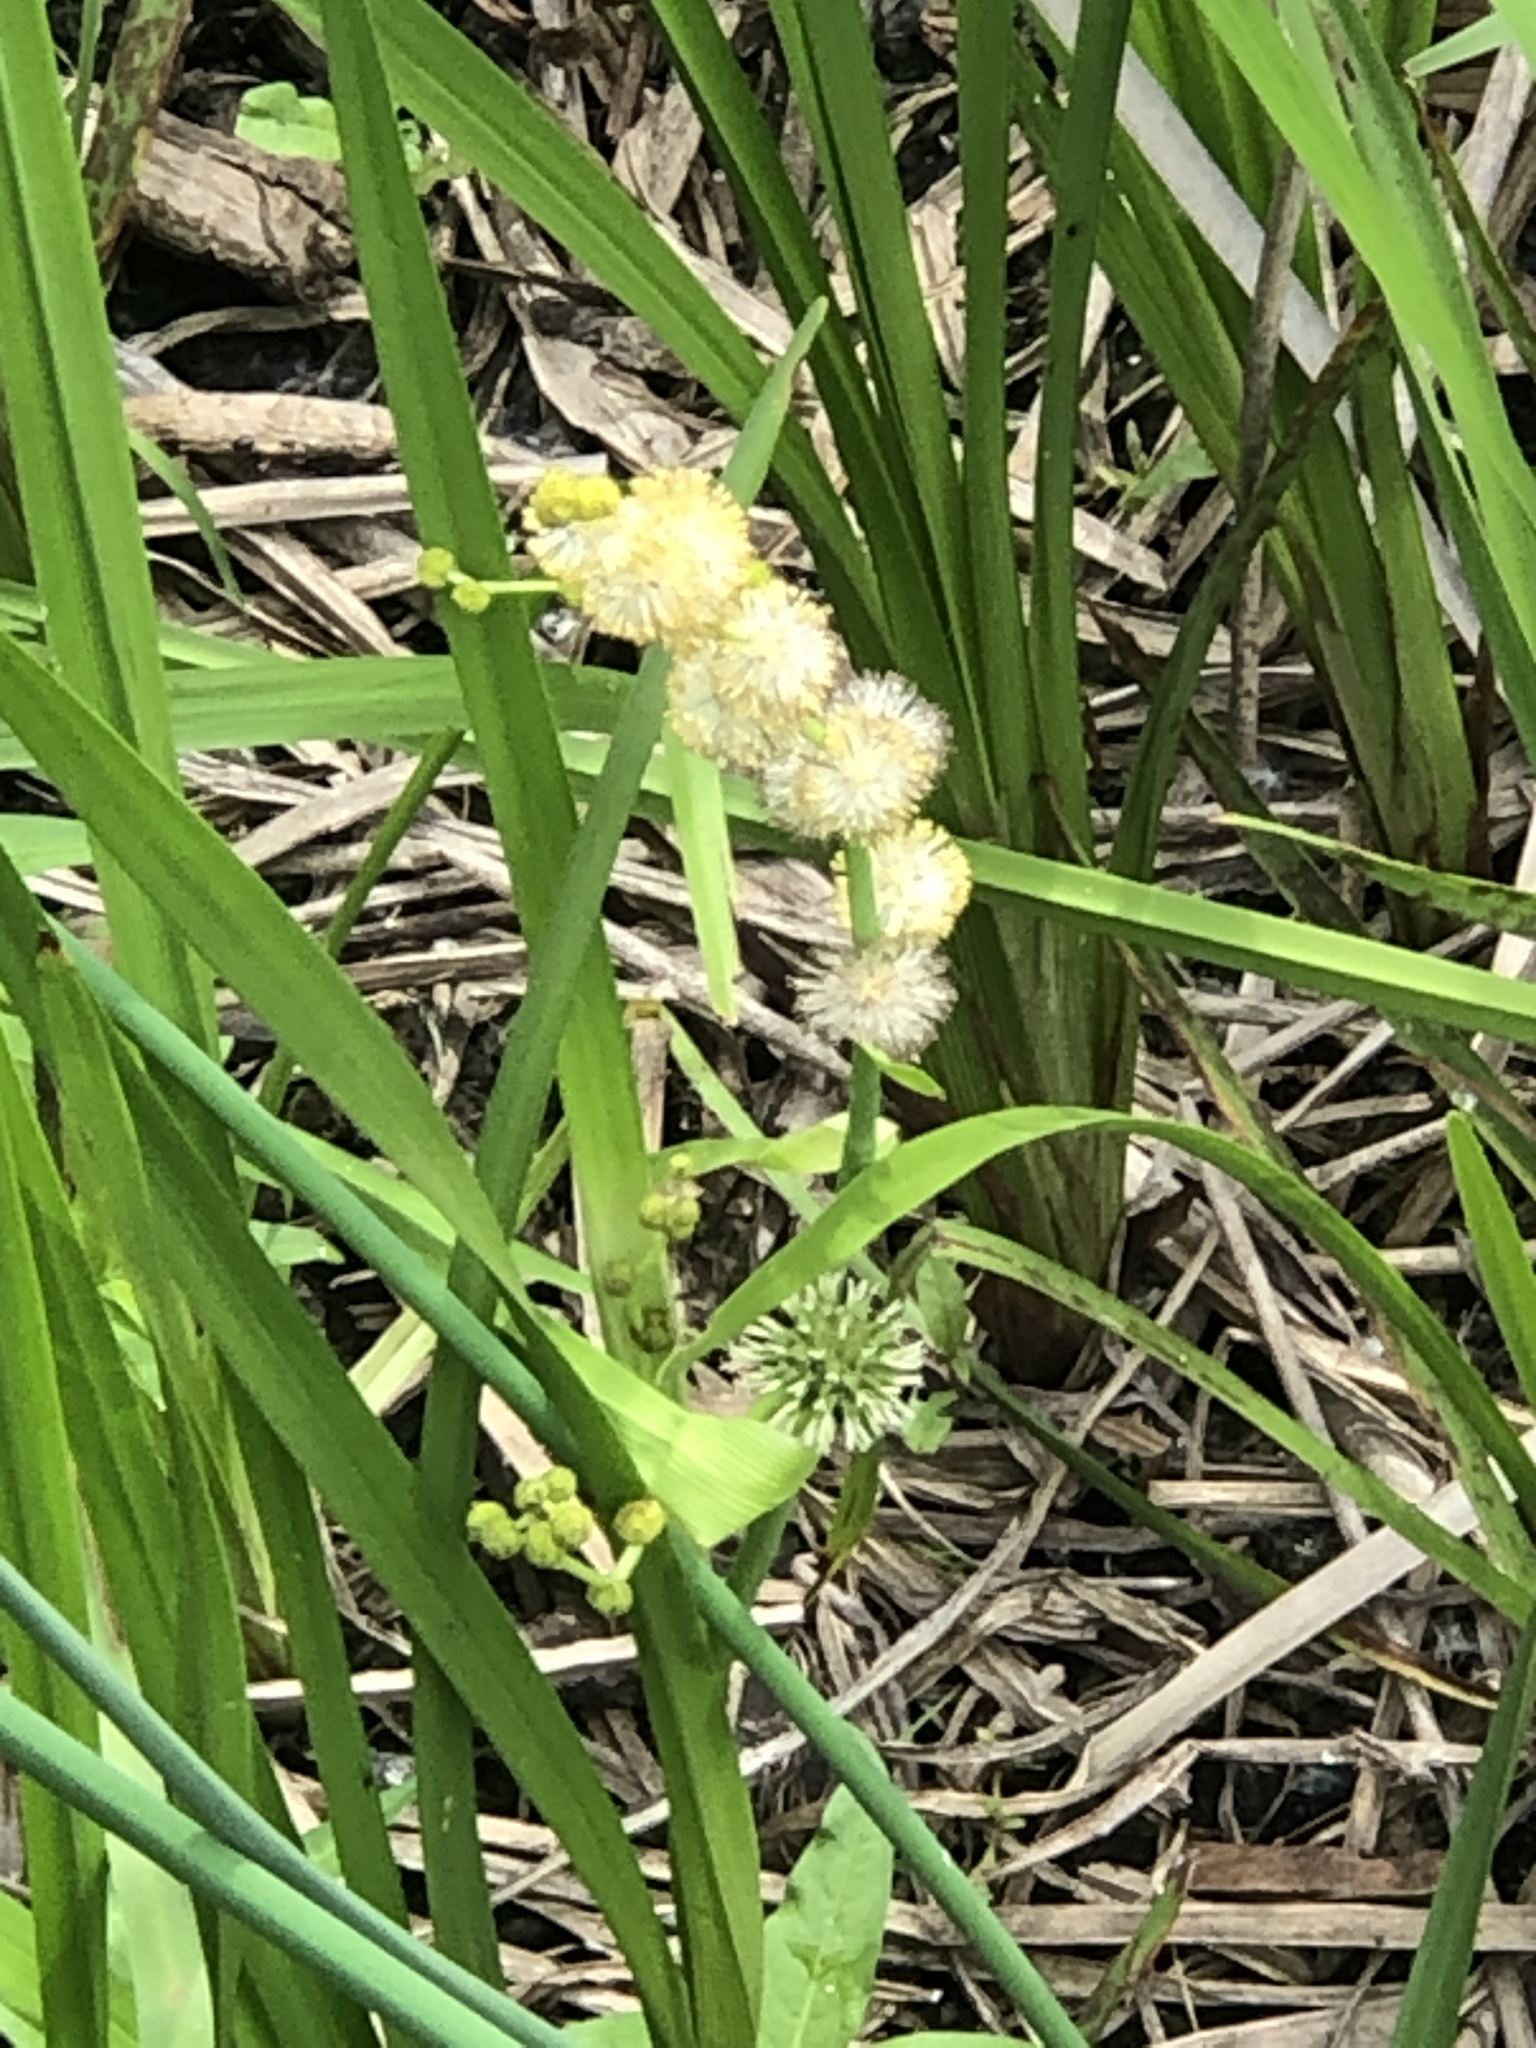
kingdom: Plantae
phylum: Tracheophyta
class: Liliopsida
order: Poales
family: Typhaceae
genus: Sparganium
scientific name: Sparganium eurycarpum
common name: Broad-fruited burreed
